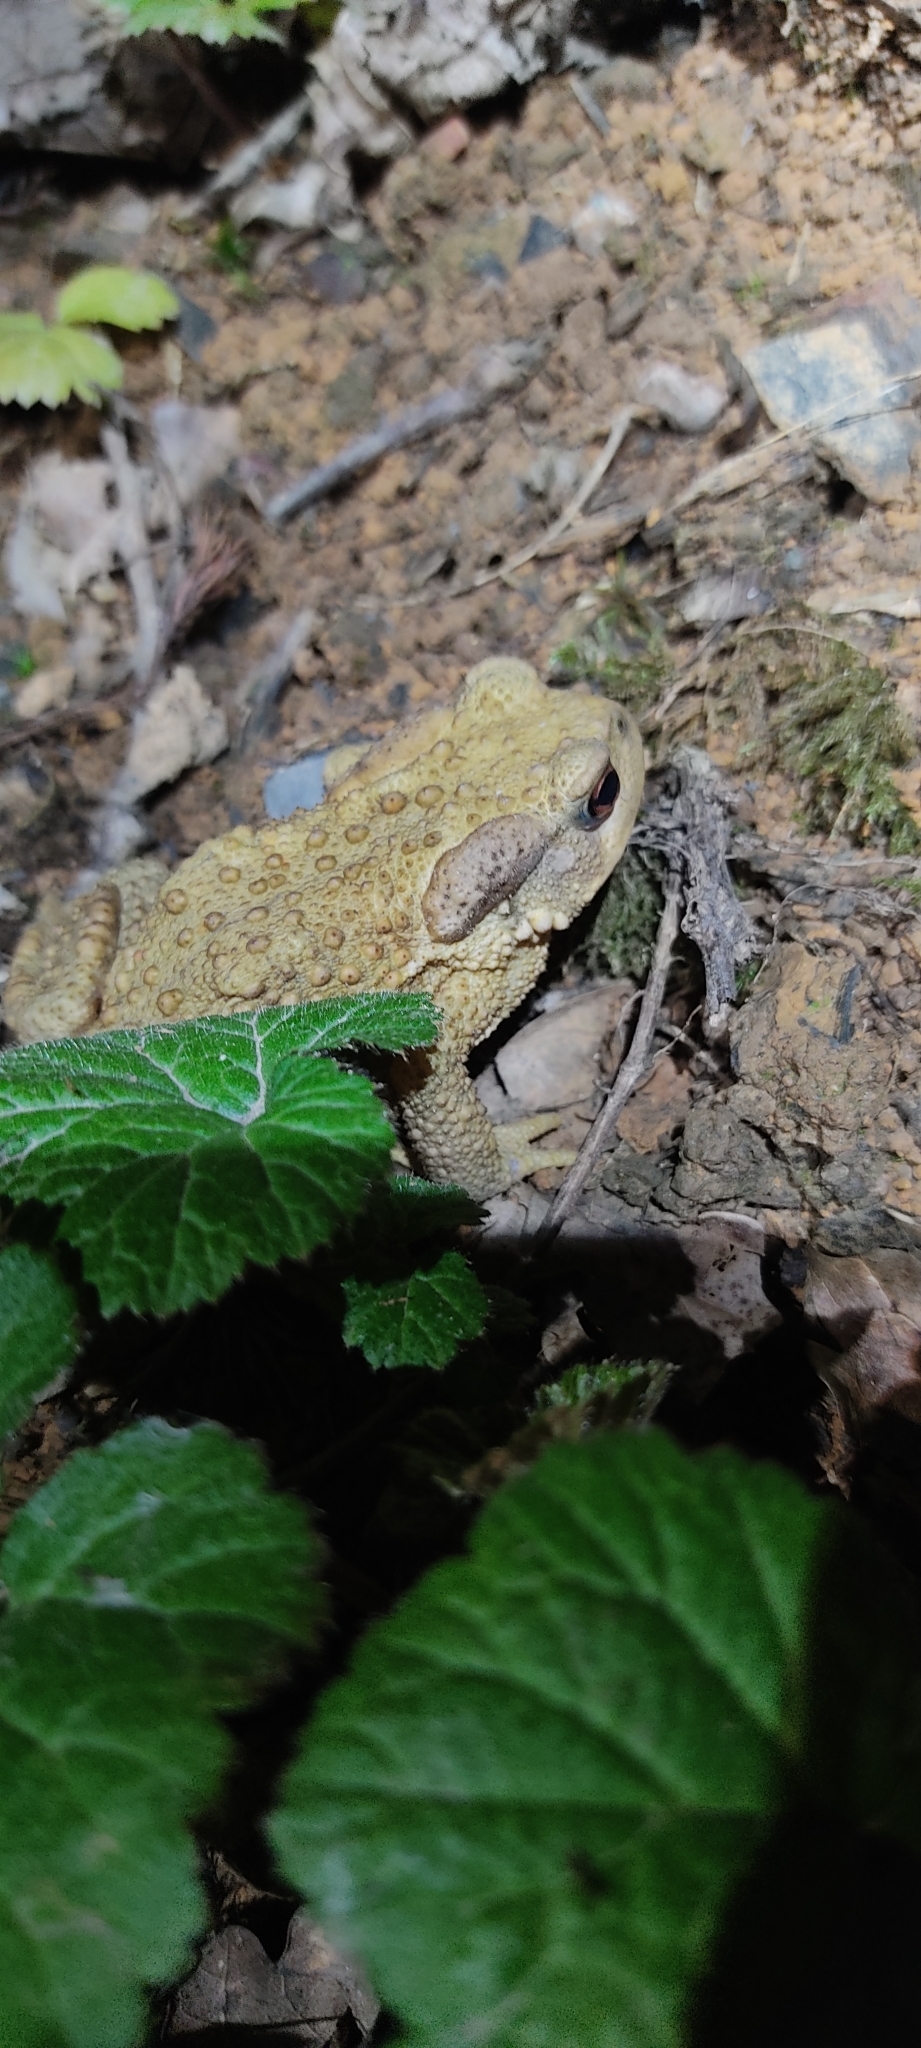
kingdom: Animalia
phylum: Chordata
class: Amphibia
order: Anura
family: Bufonidae
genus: Bufo
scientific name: Bufo spinosus
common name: Western common toad
